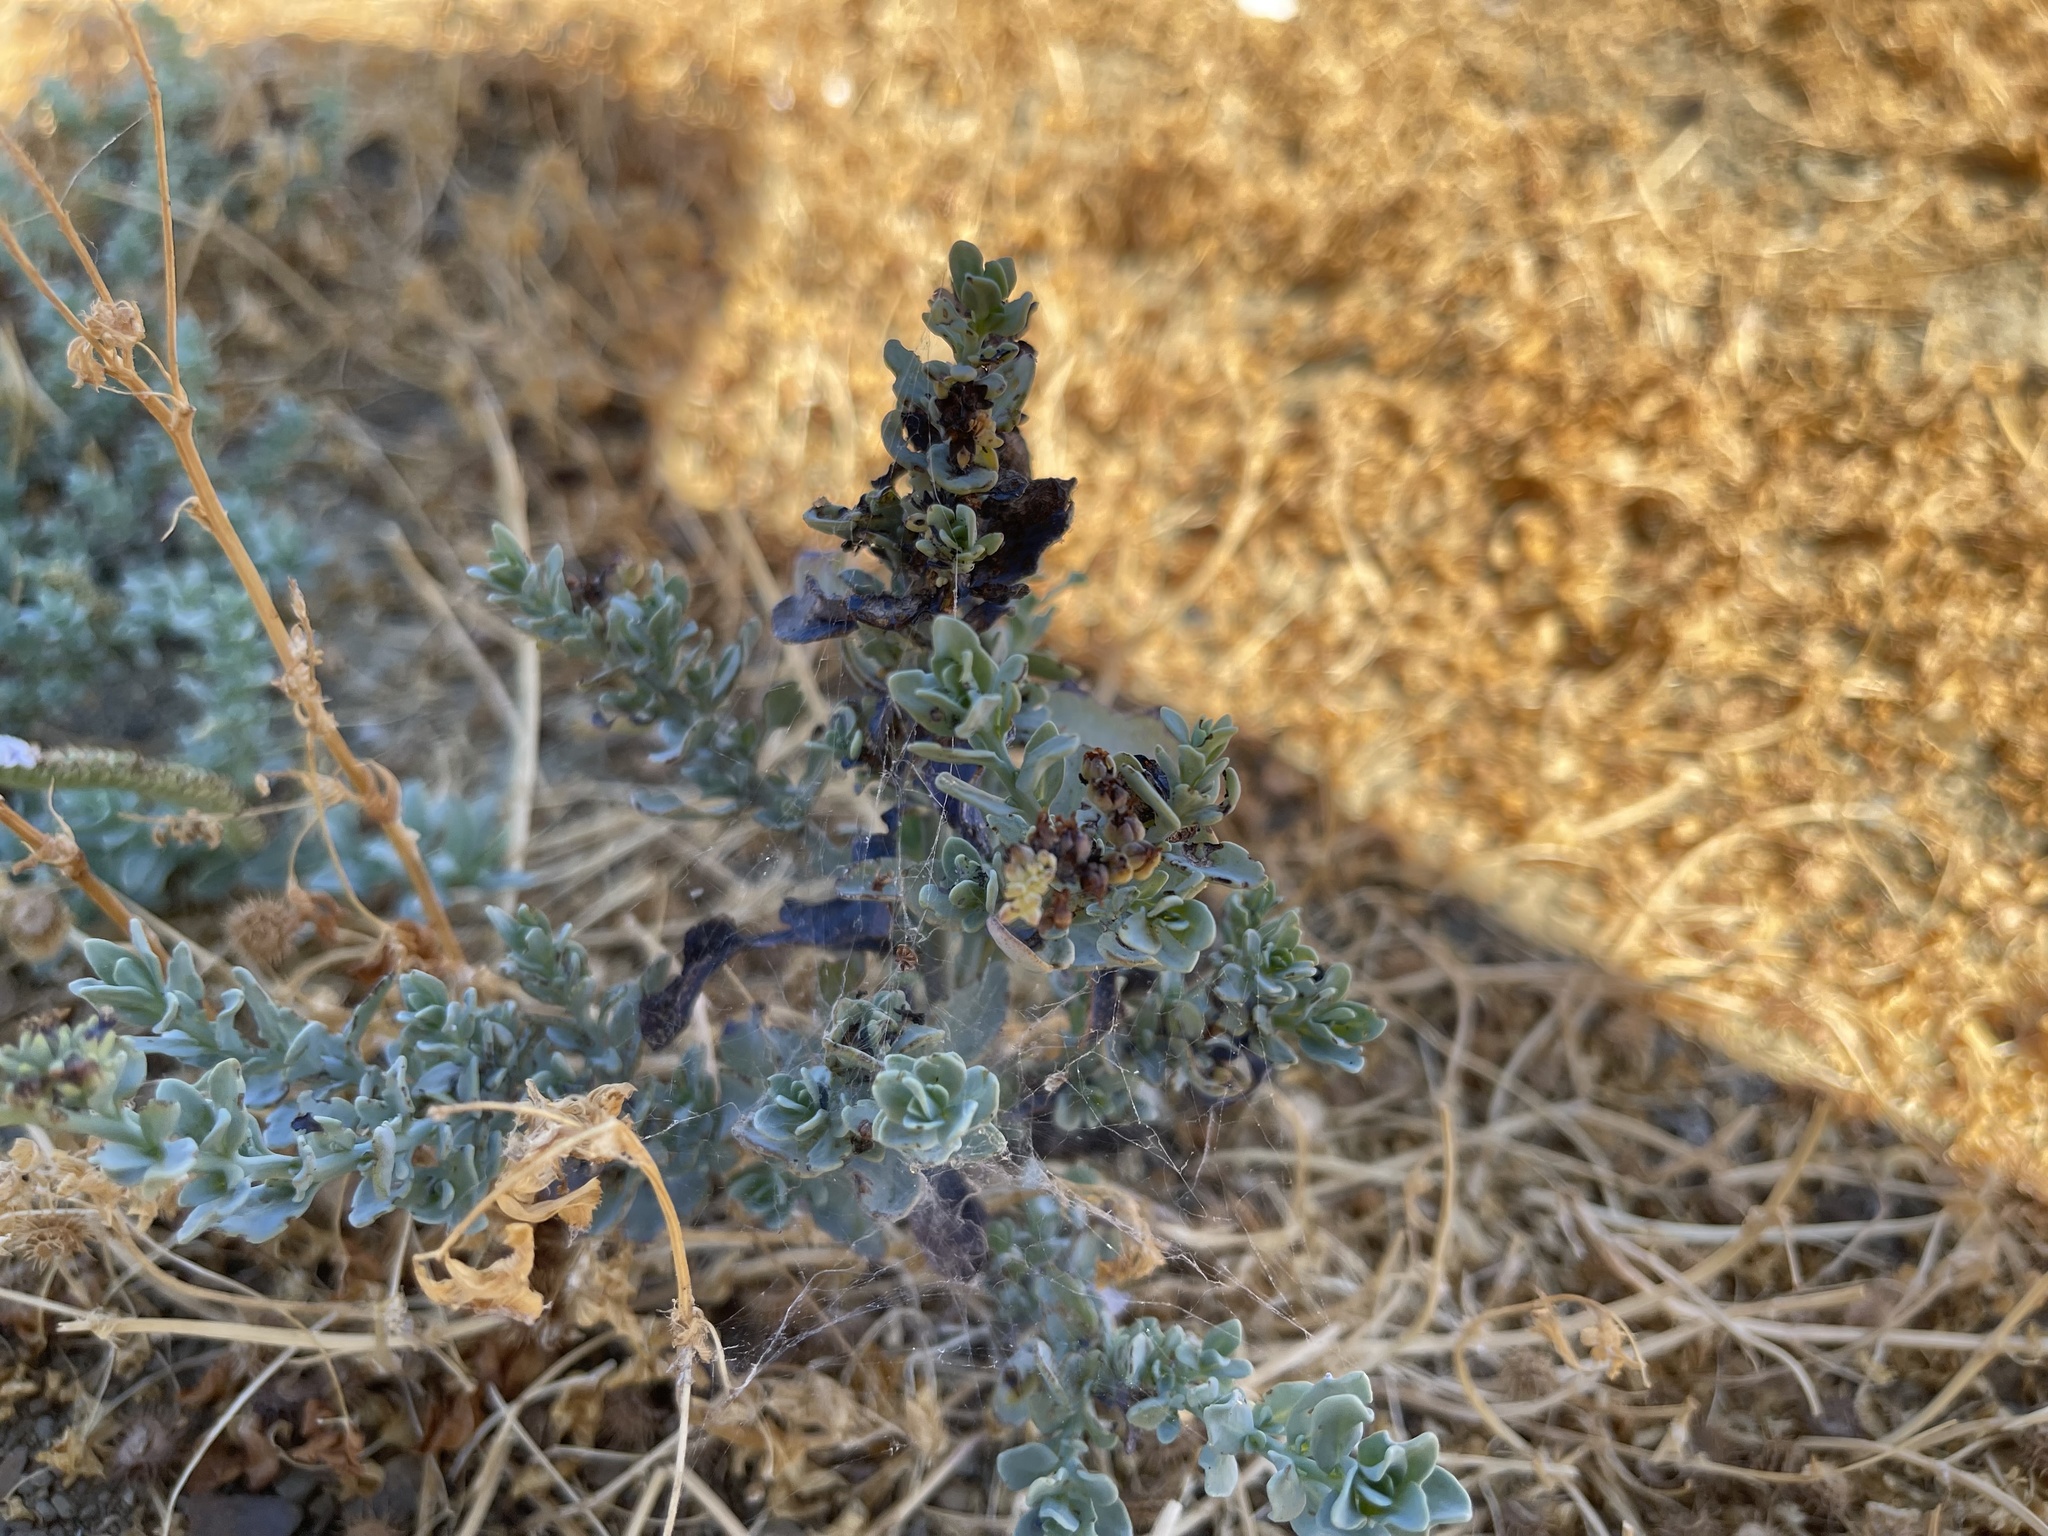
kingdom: Plantae
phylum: Tracheophyta
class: Magnoliopsida
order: Boraginales
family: Heliotropiaceae
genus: Heliotropium
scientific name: Heliotropium curassavicum
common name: Seaside heliotrope
